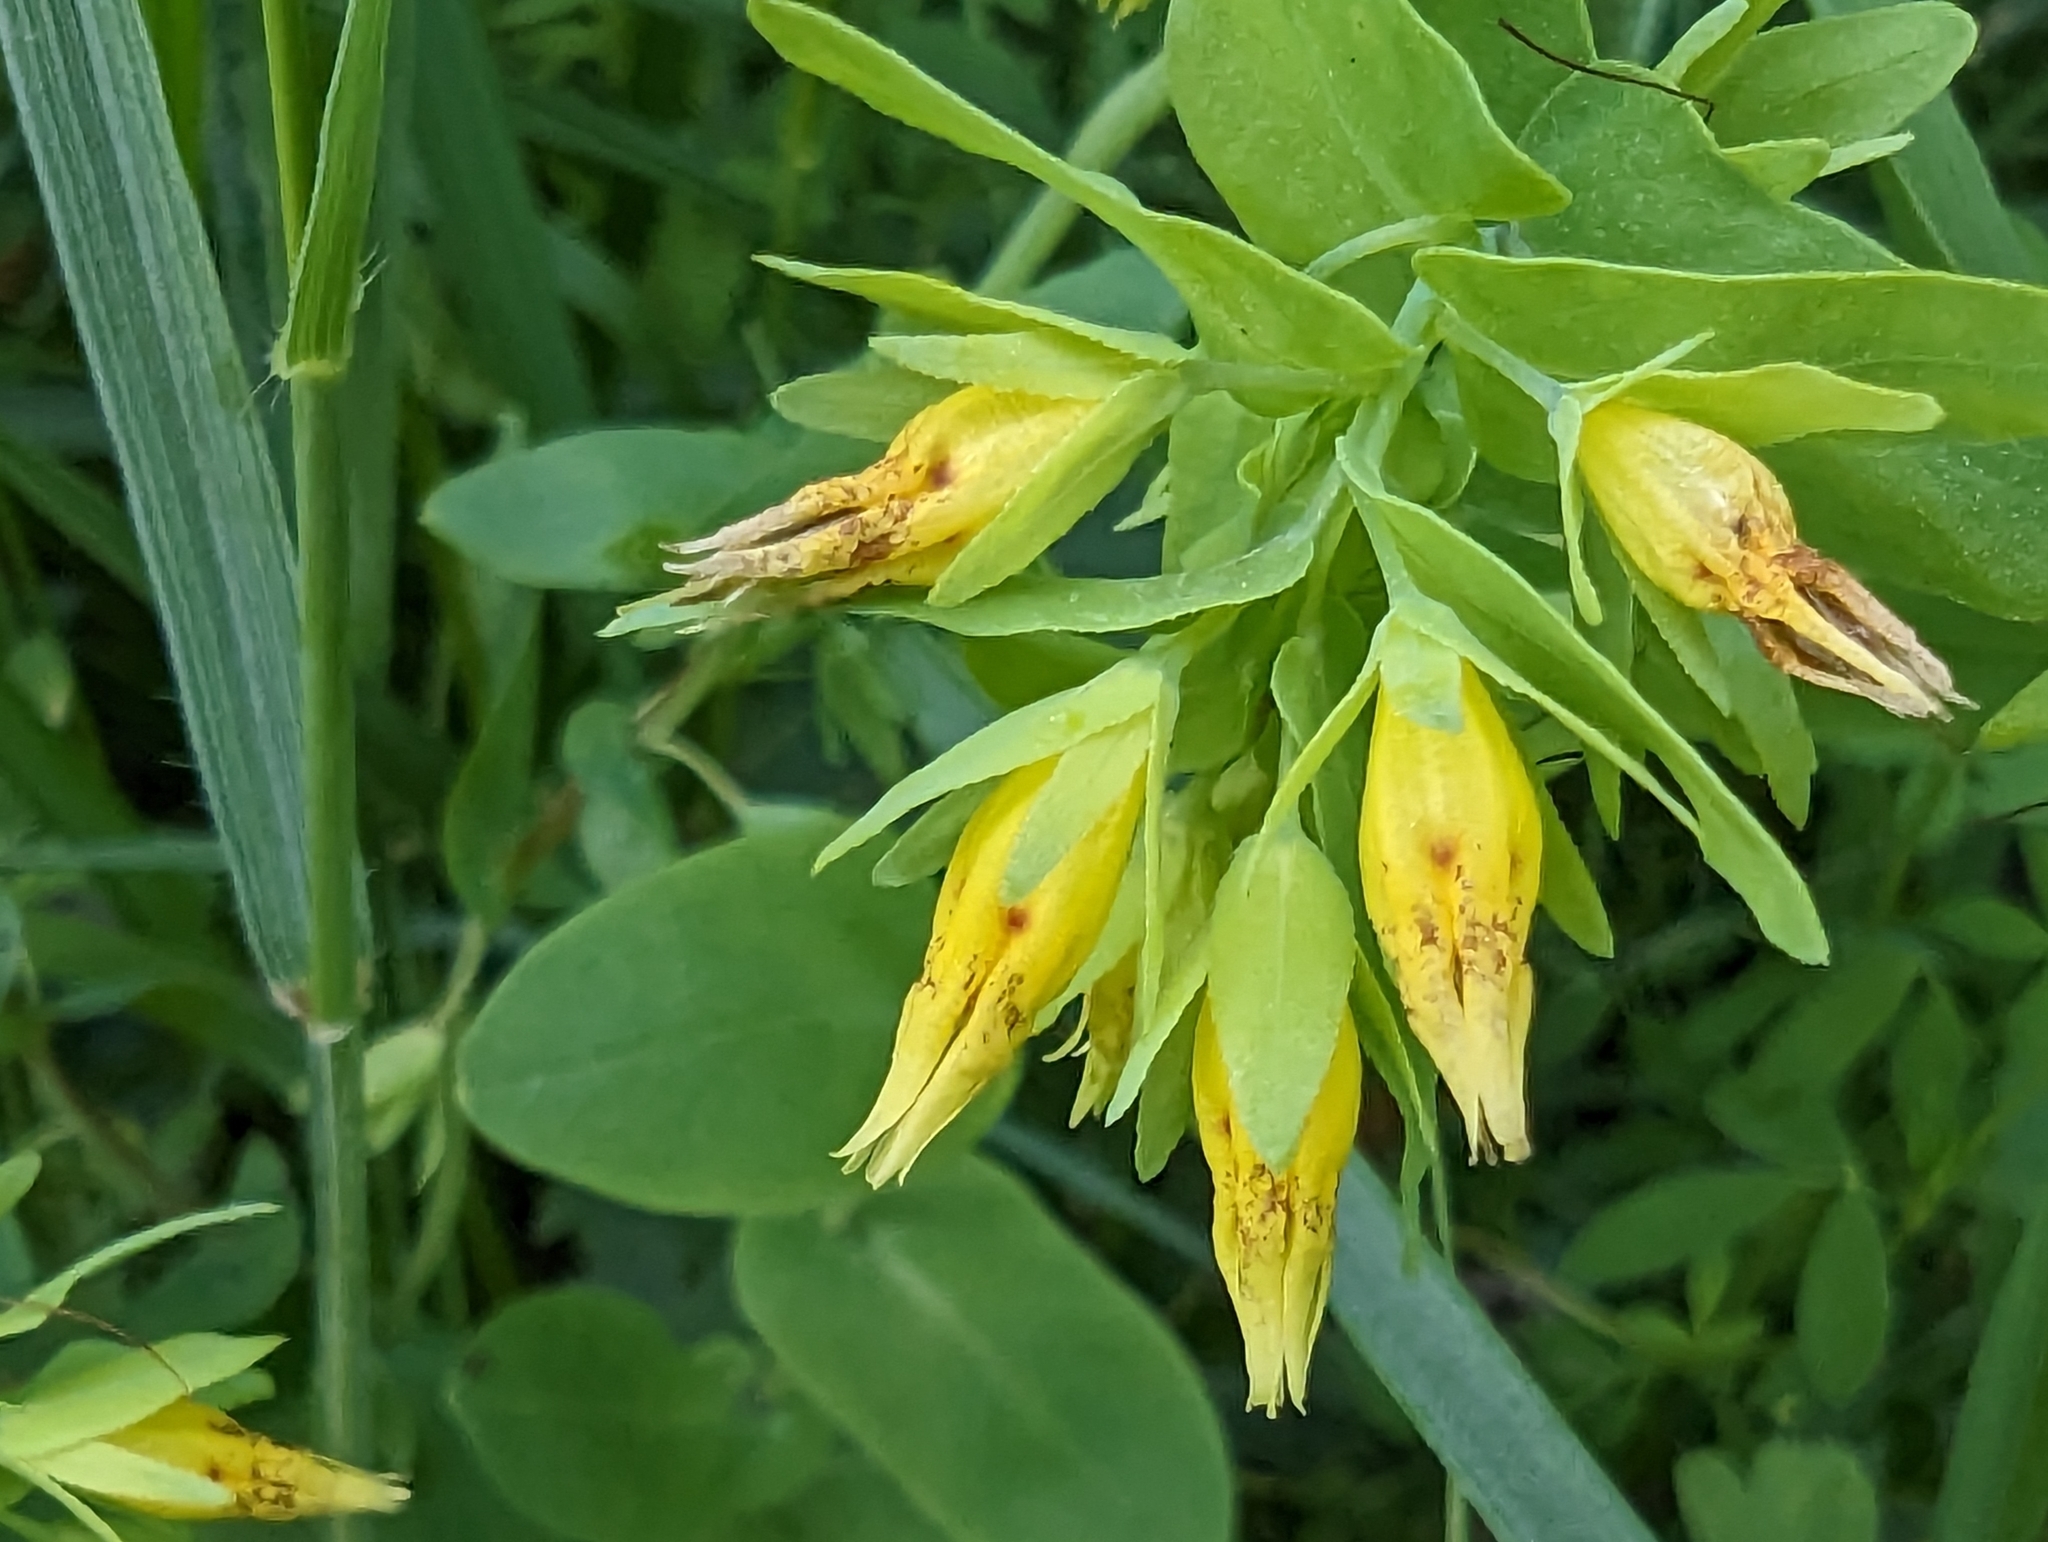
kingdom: Plantae
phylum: Tracheophyta
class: Magnoliopsida
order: Boraginales
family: Boraginaceae
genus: Cerinthe
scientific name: Cerinthe minor
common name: Lesser honeywort
